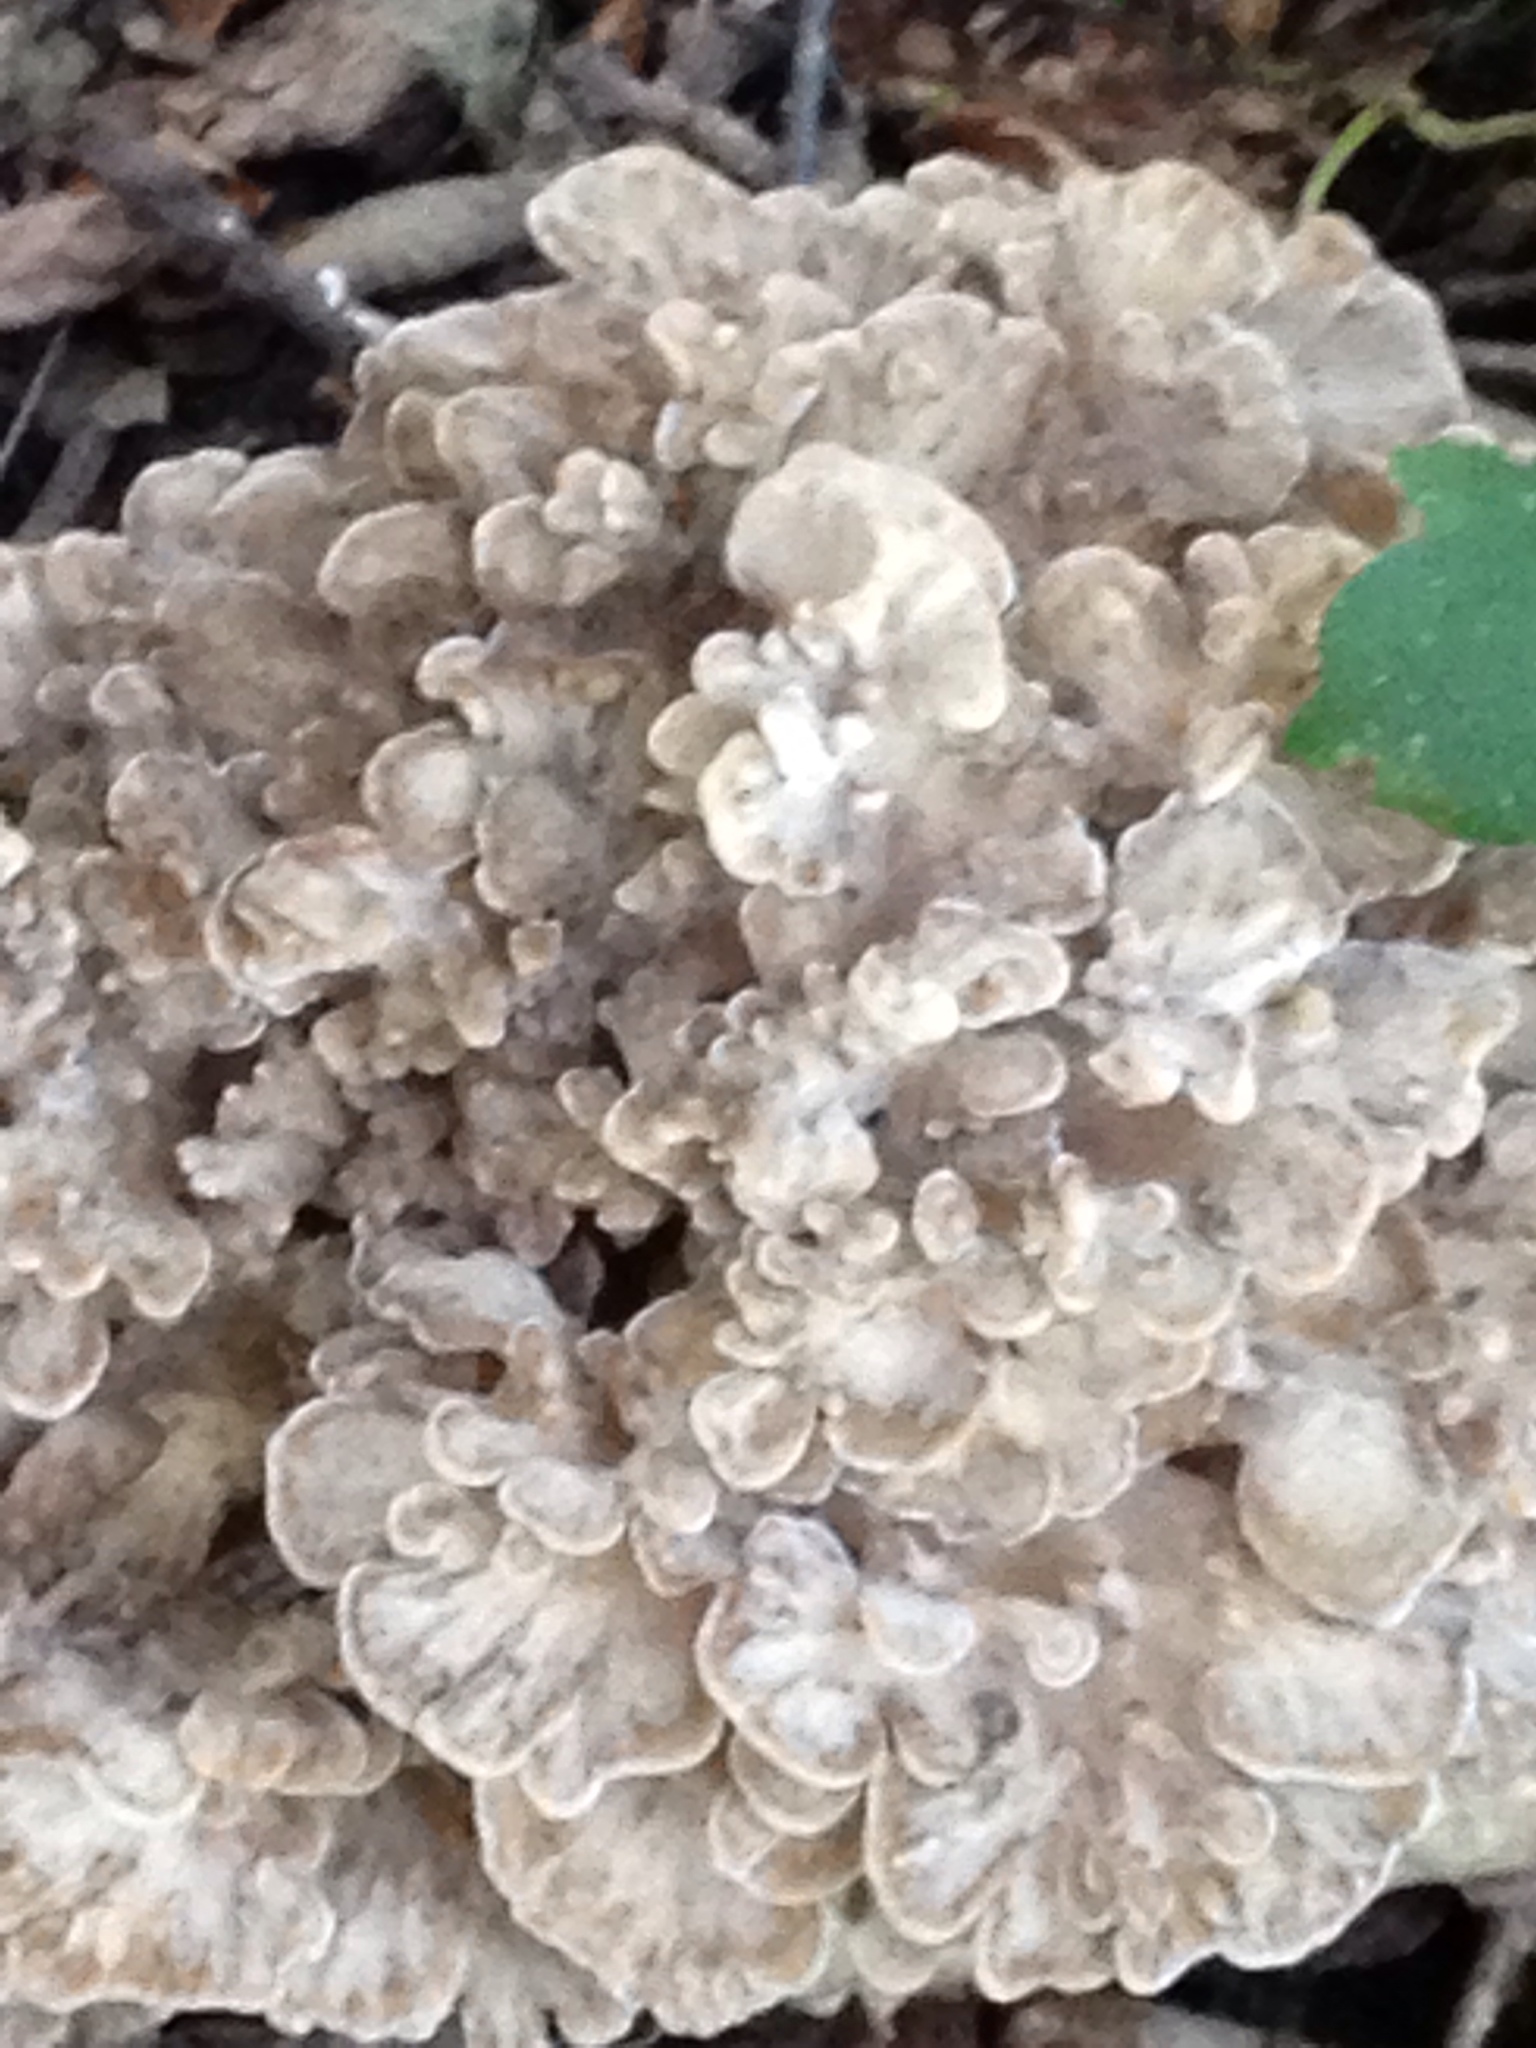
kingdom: Fungi
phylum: Basidiomycota
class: Agaricomycetes
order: Polyporales
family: Grifolaceae
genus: Grifola
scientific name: Grifola frondosa
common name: Hen of the woods
